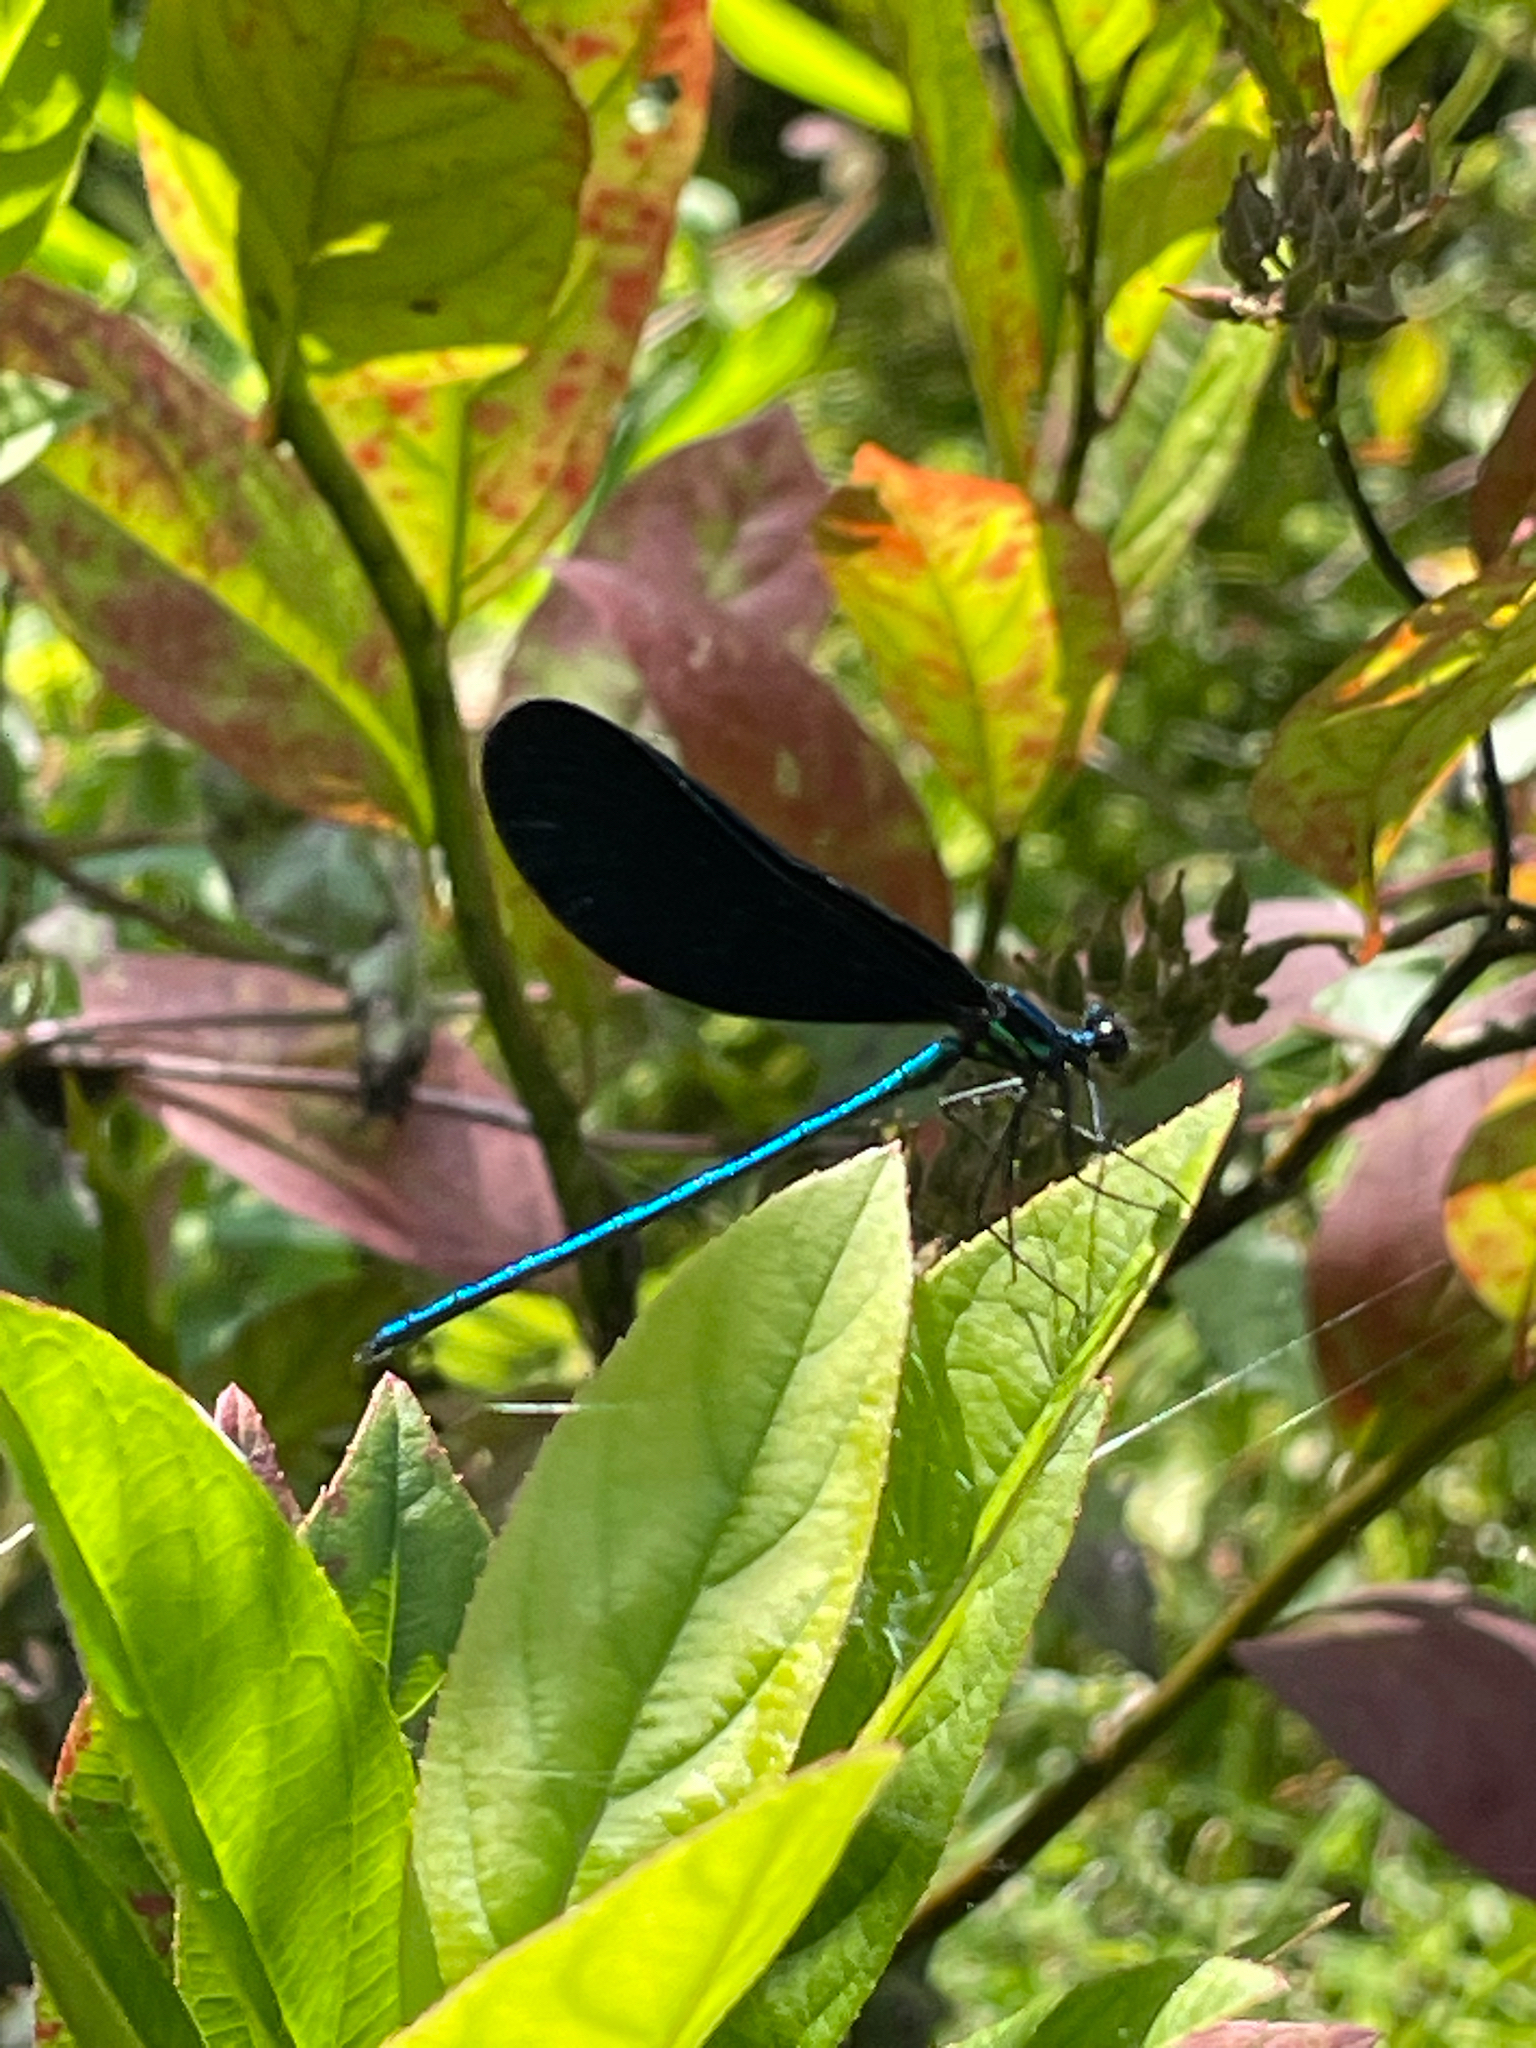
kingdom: Animalia
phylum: Arthropoda
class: Insecta
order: Odonata
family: Calopterygidae
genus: Calopteryx
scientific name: Calopteryx maculata
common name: Ebony jewelwing
